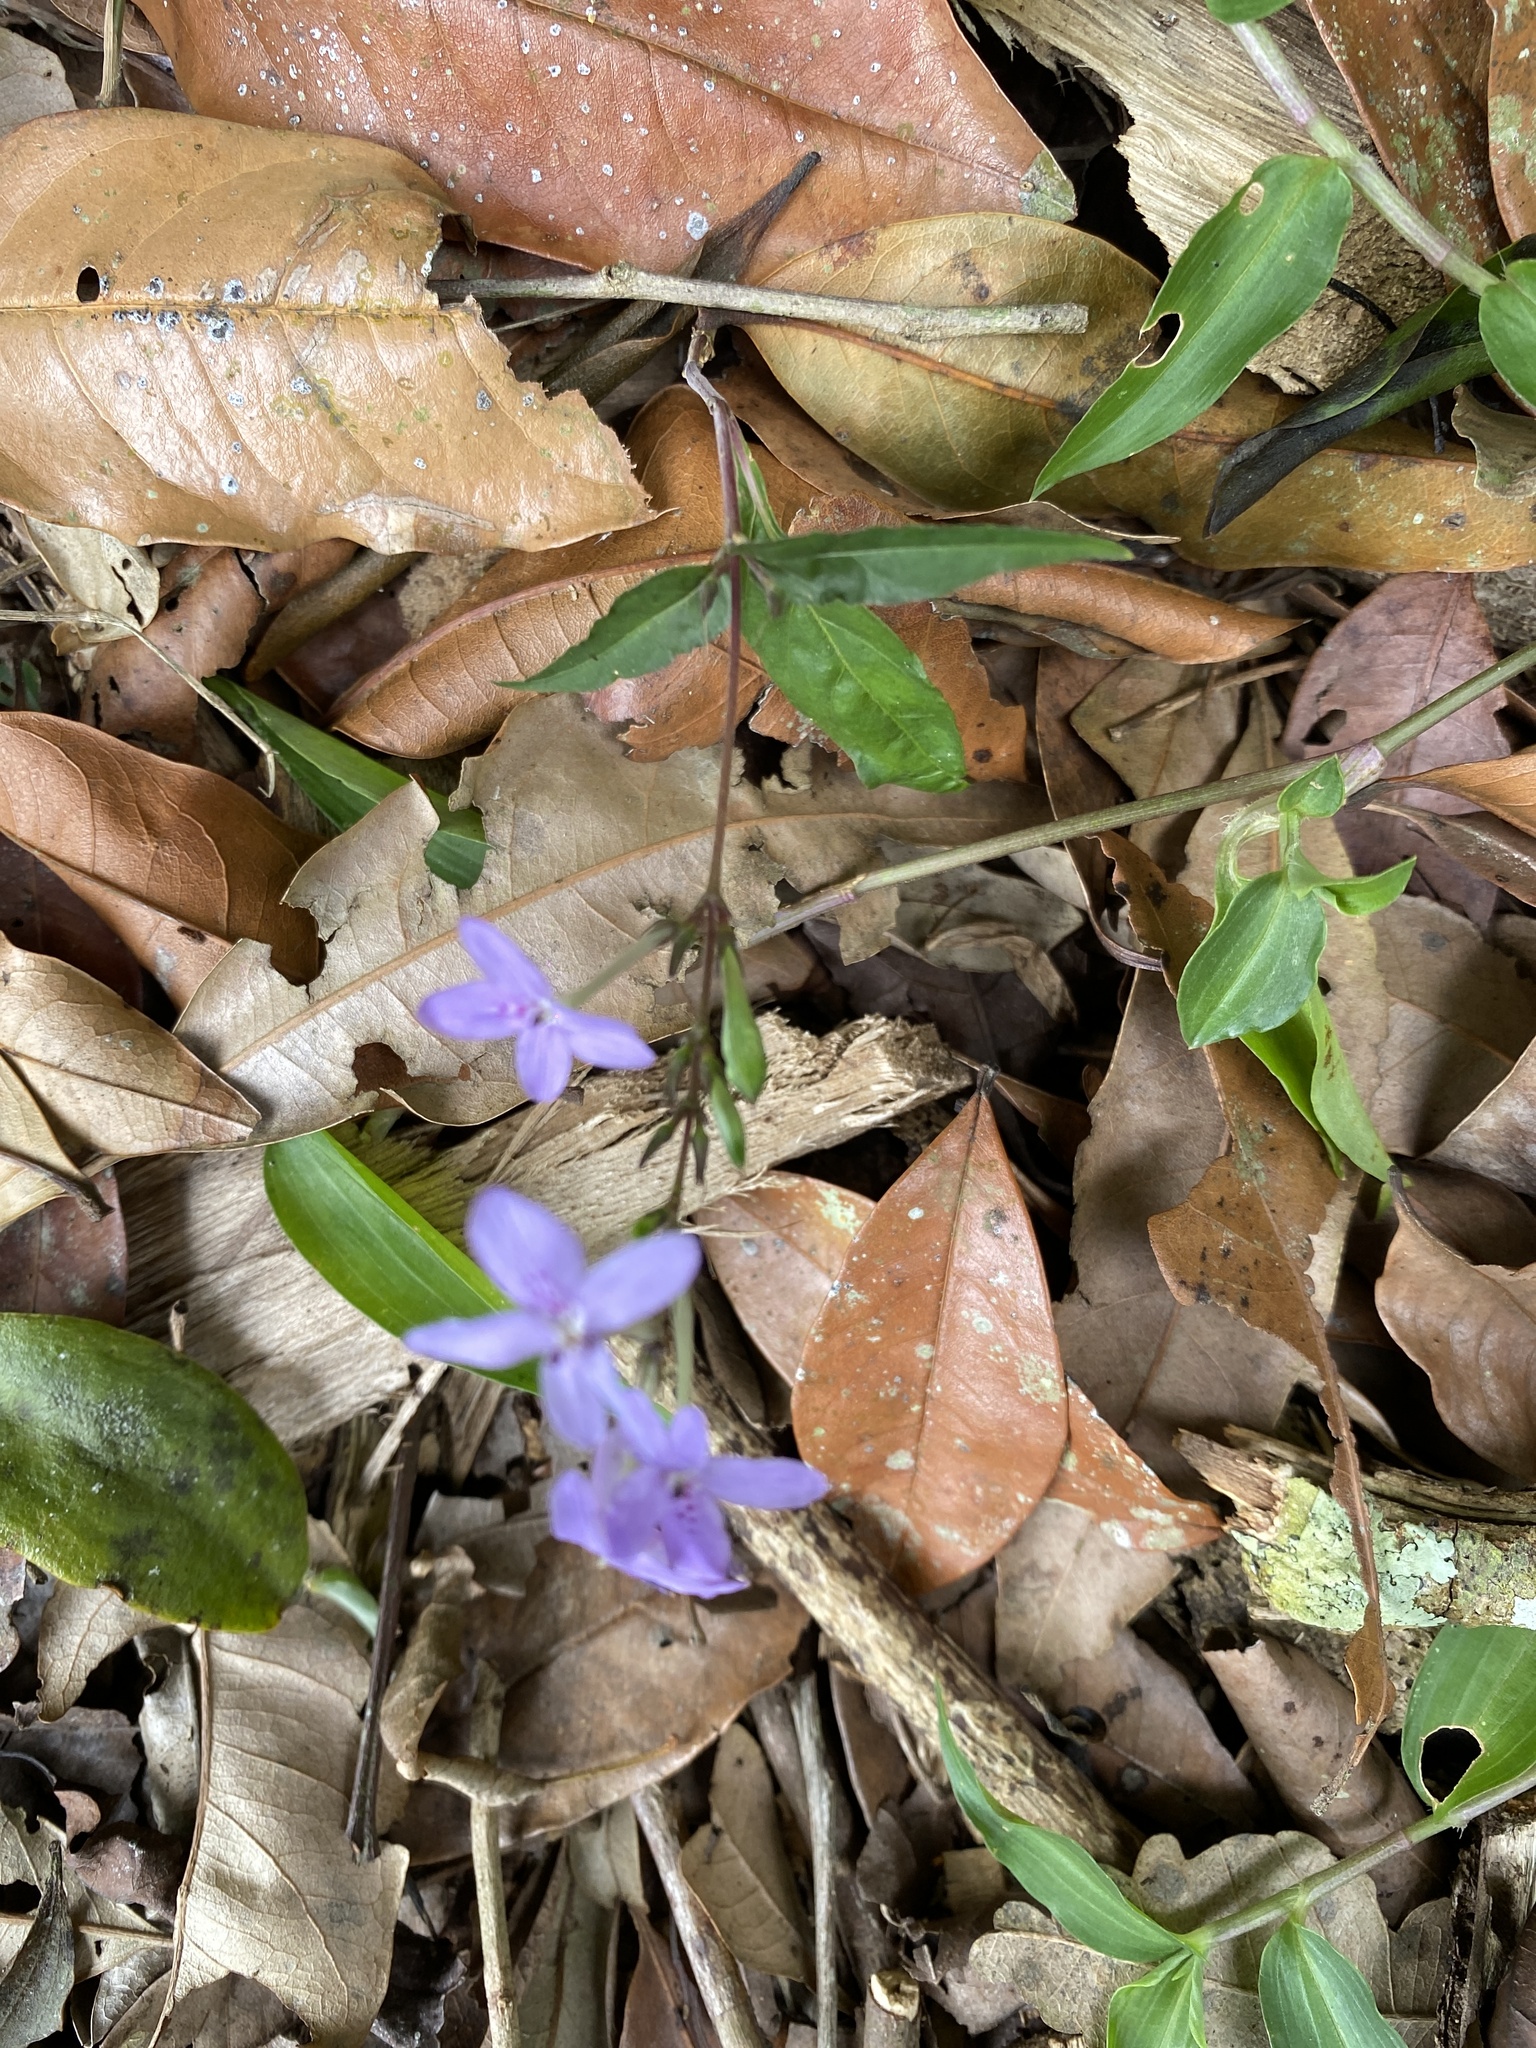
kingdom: Plantae
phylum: Tracheophyta
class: Magnoliopsida
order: Lamiales
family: Acanthaceae
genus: Pseuderanthemum
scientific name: Pseuderanthemum variabile
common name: Night and afternoon
